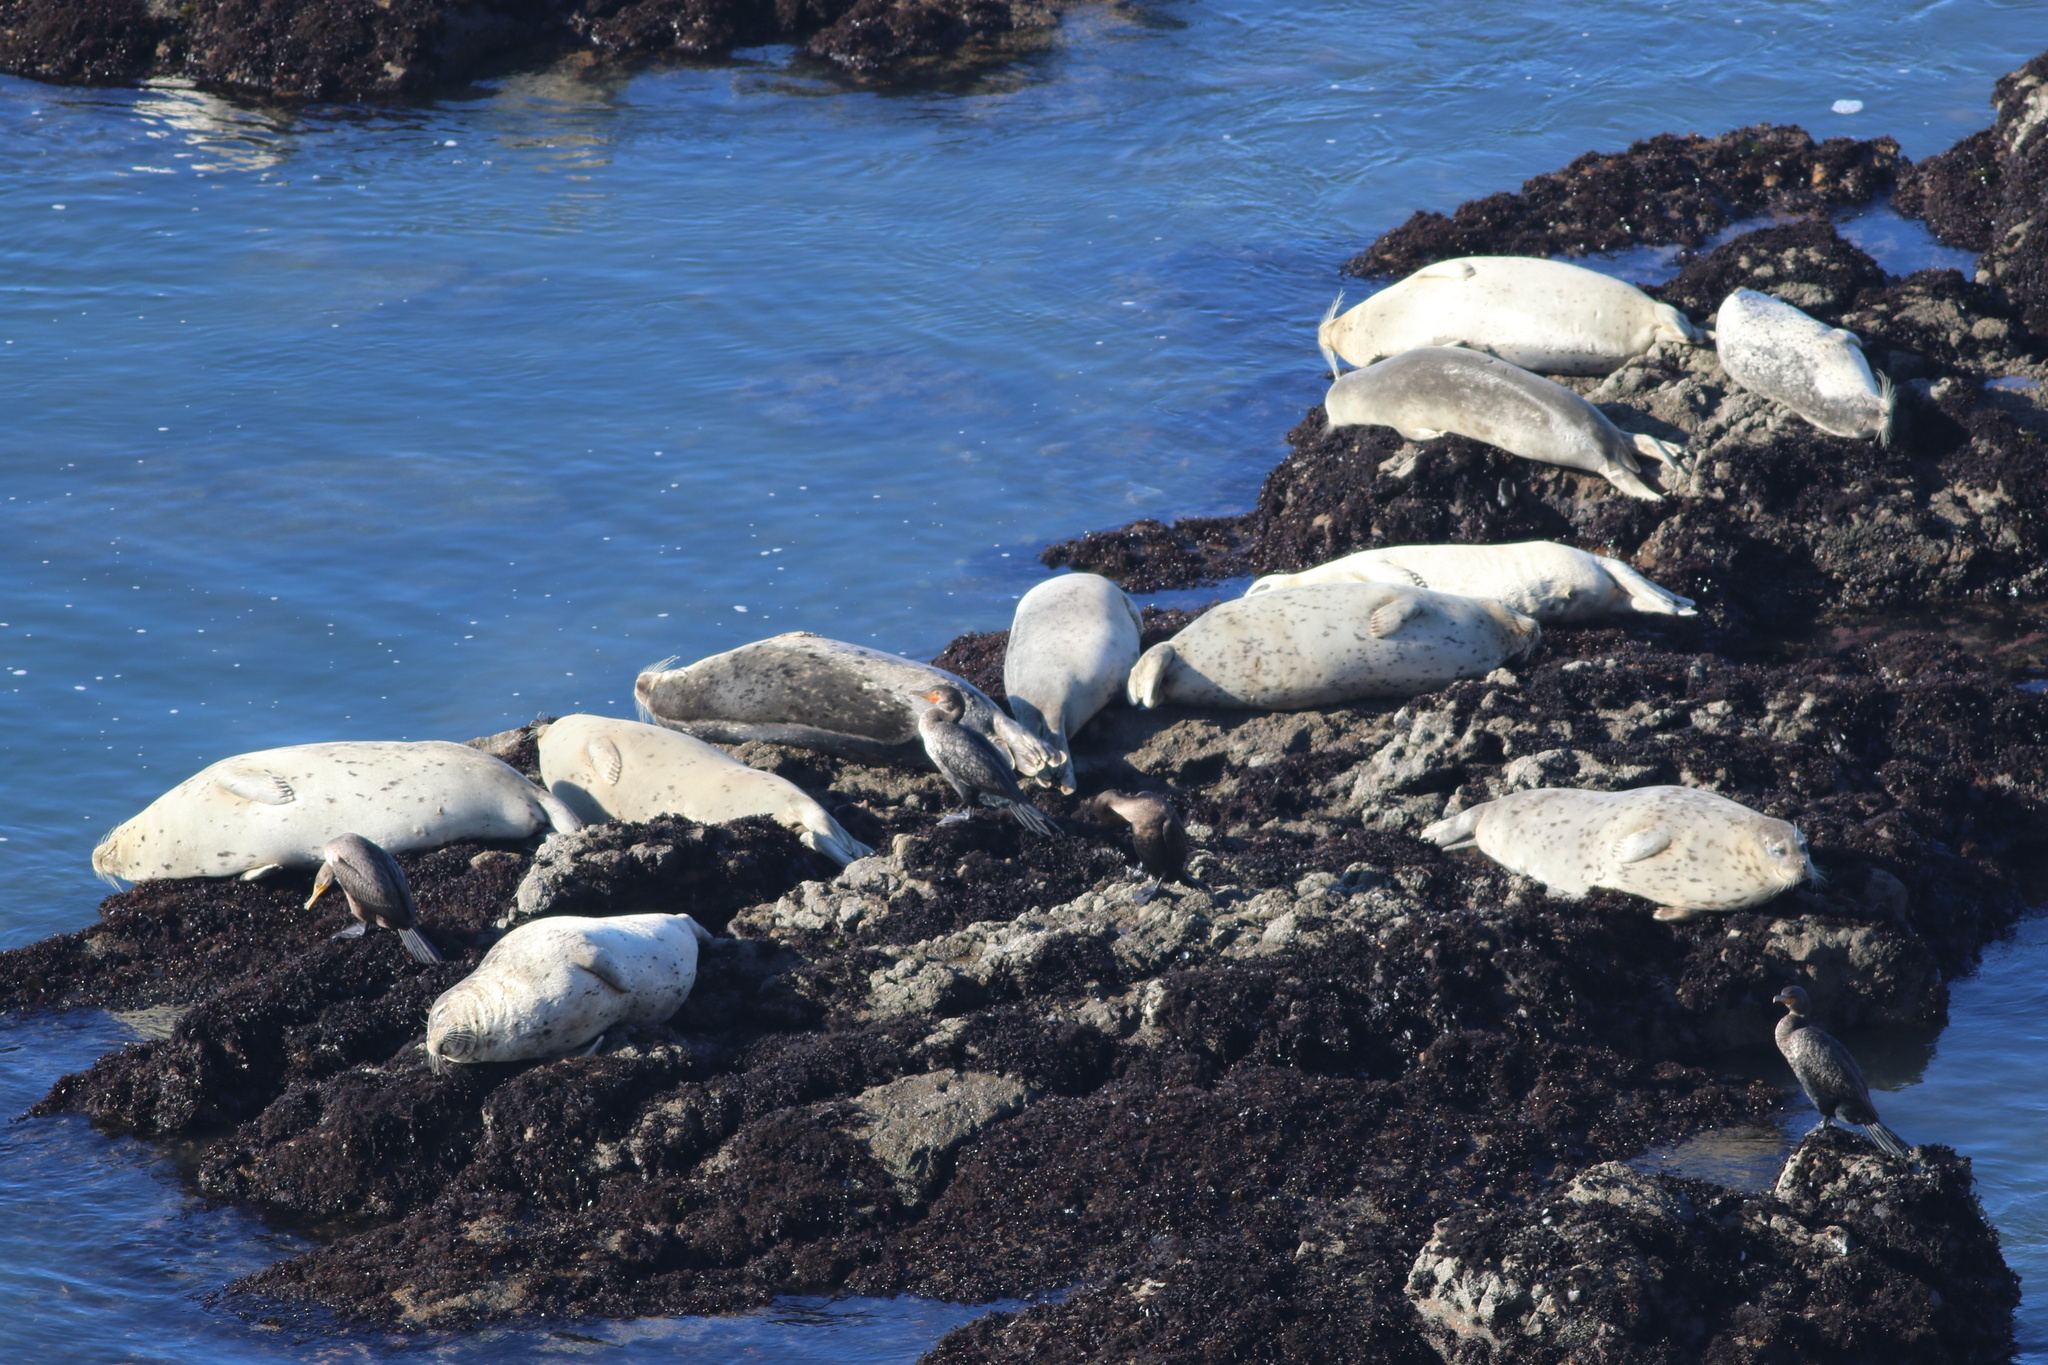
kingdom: Animalia
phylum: Chordata
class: Mammalia
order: Carnivora
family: Phocidae
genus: Phoca
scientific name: Phoca vitulina
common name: Harbor seal
